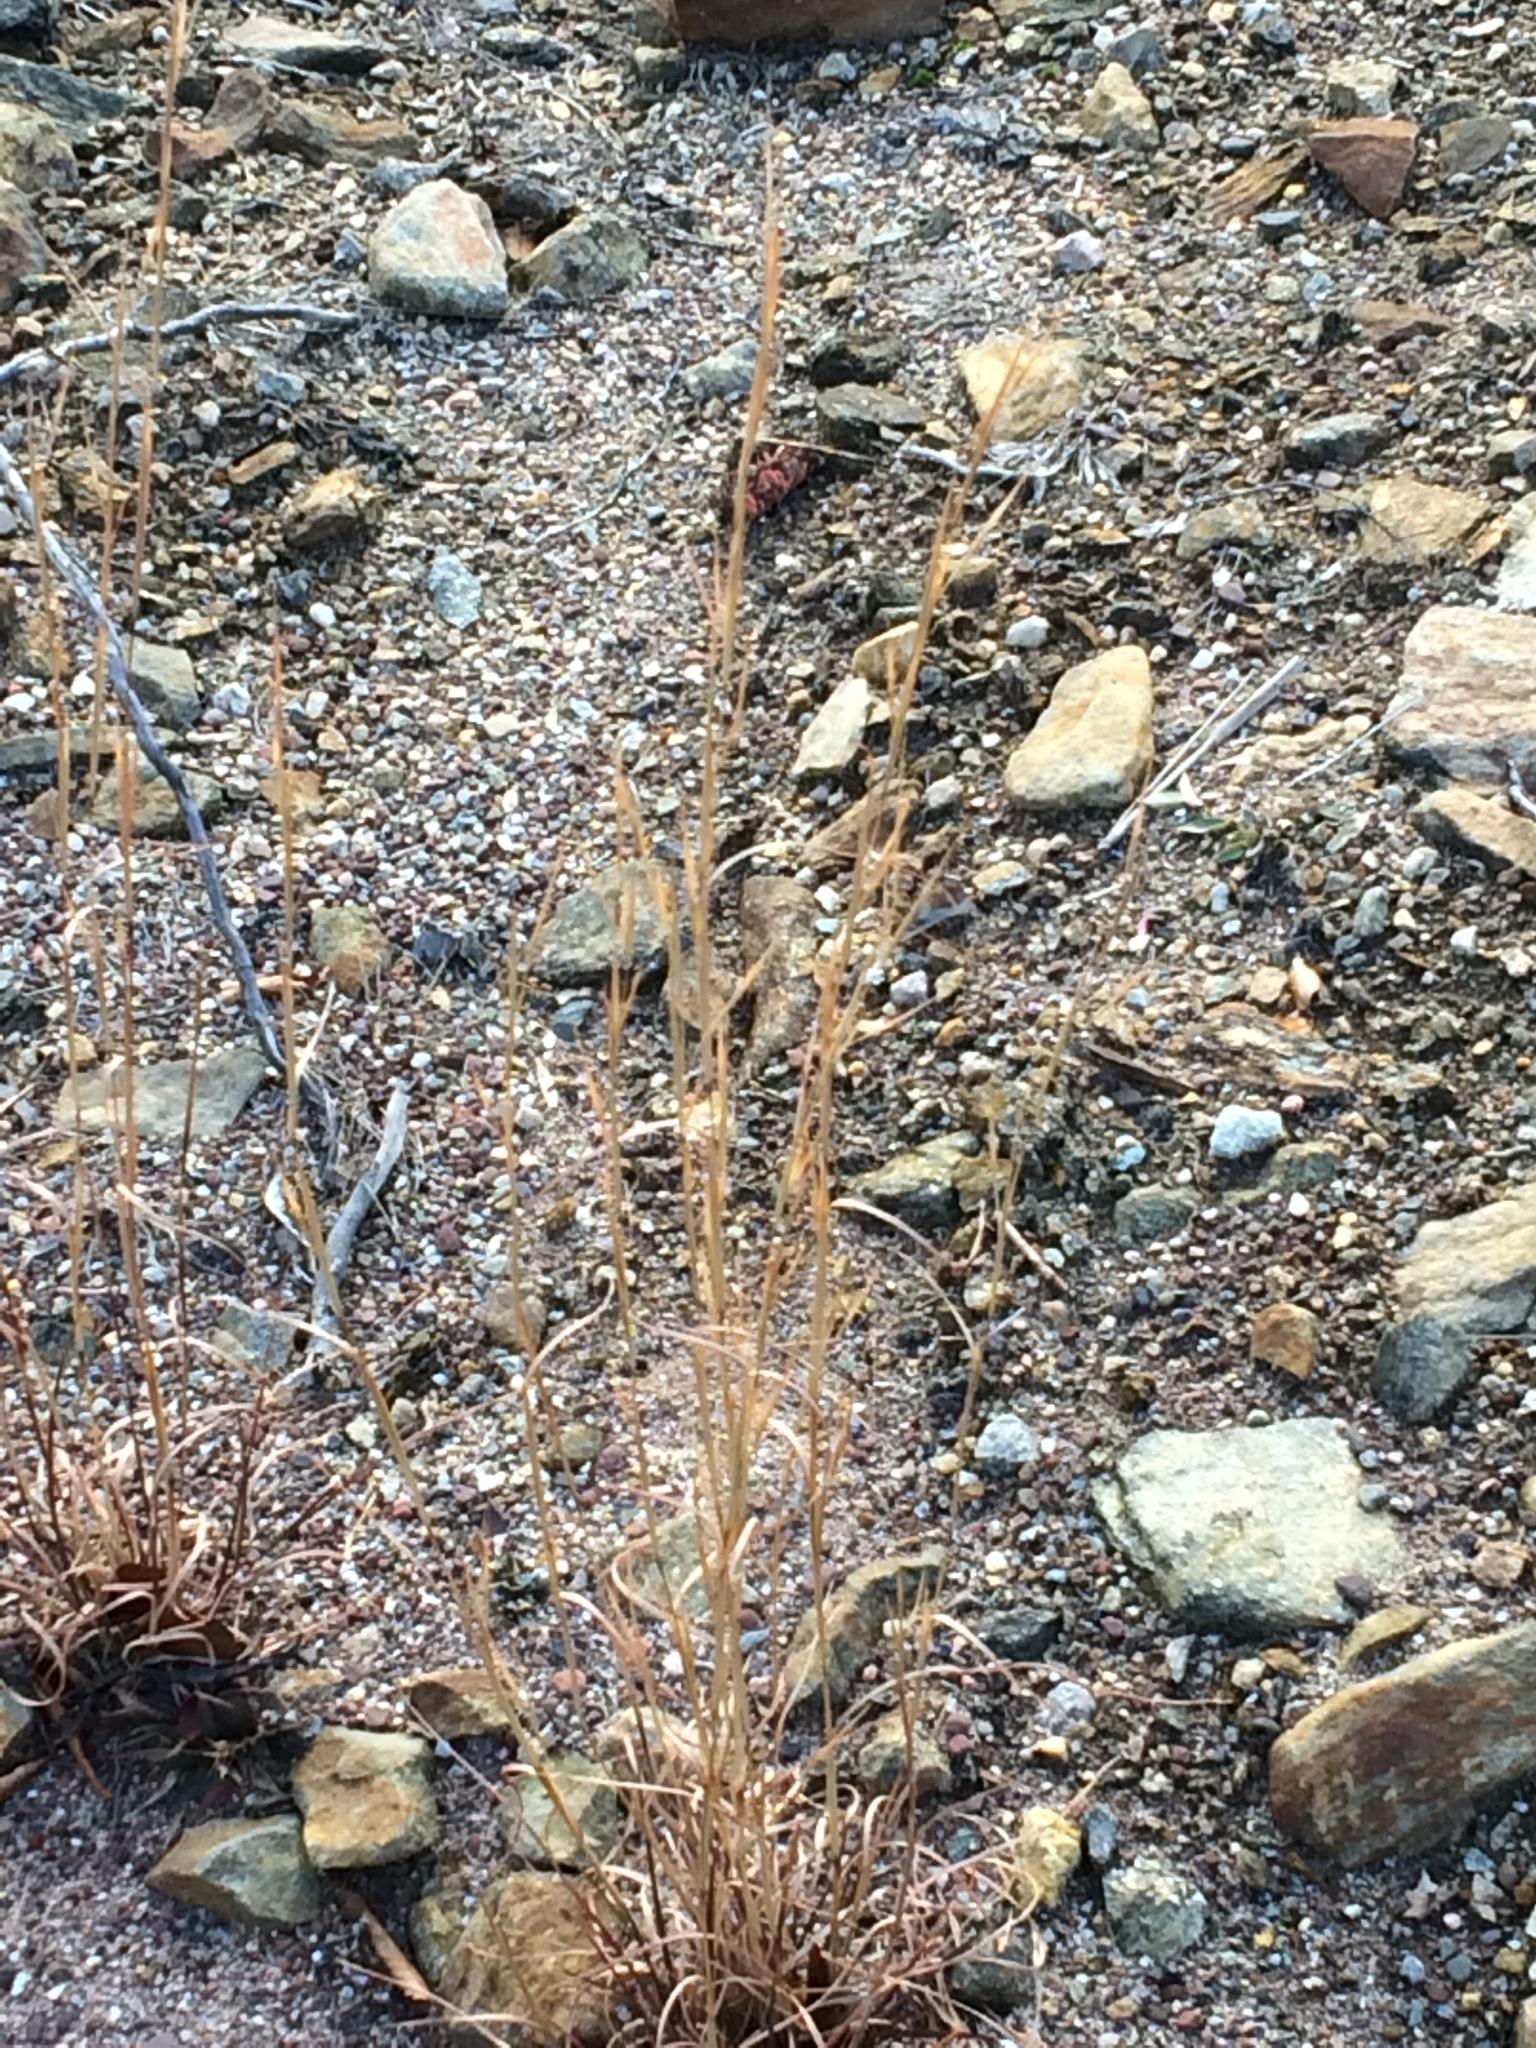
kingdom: Plantae
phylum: Tracheophyta
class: Liliopsida
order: Poales
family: Poaceae
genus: Schizachyrium
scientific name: Schizachyrium scoparium
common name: Little bluestem
